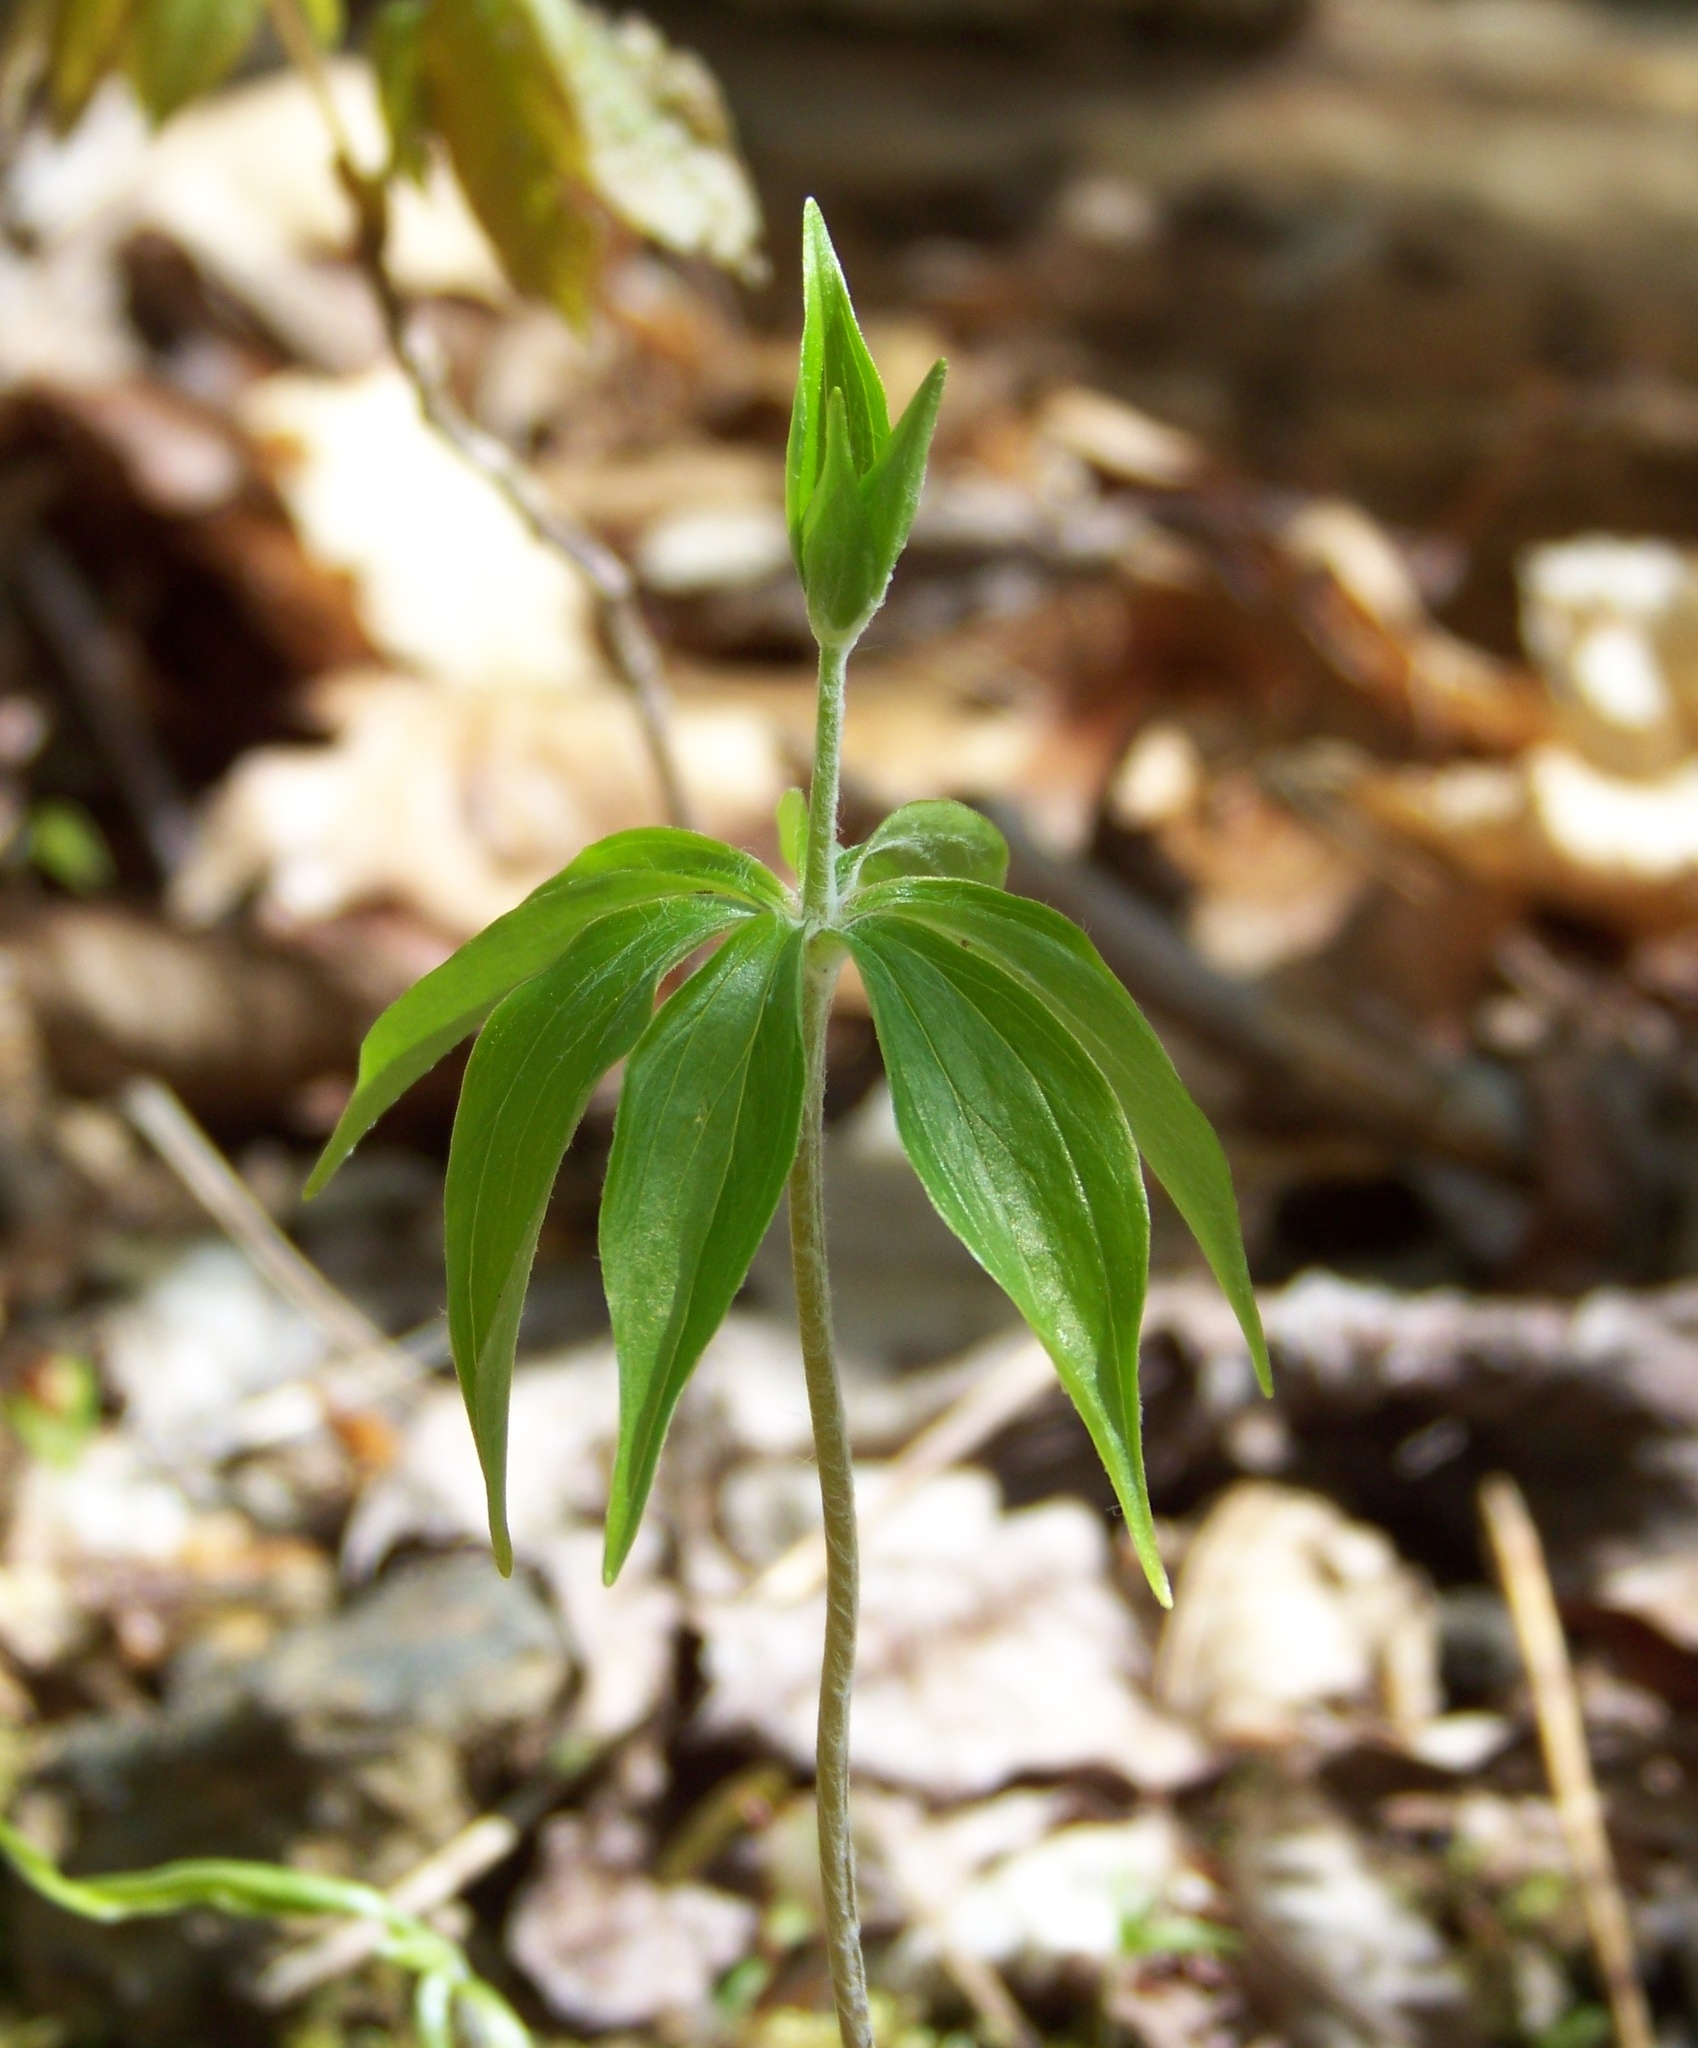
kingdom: Plantae
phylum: Tracheophyta
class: Liliopsida
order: Liliales
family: Liliaceae
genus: Medeola
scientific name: Medeola virginiana
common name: Indian cucumber-root
